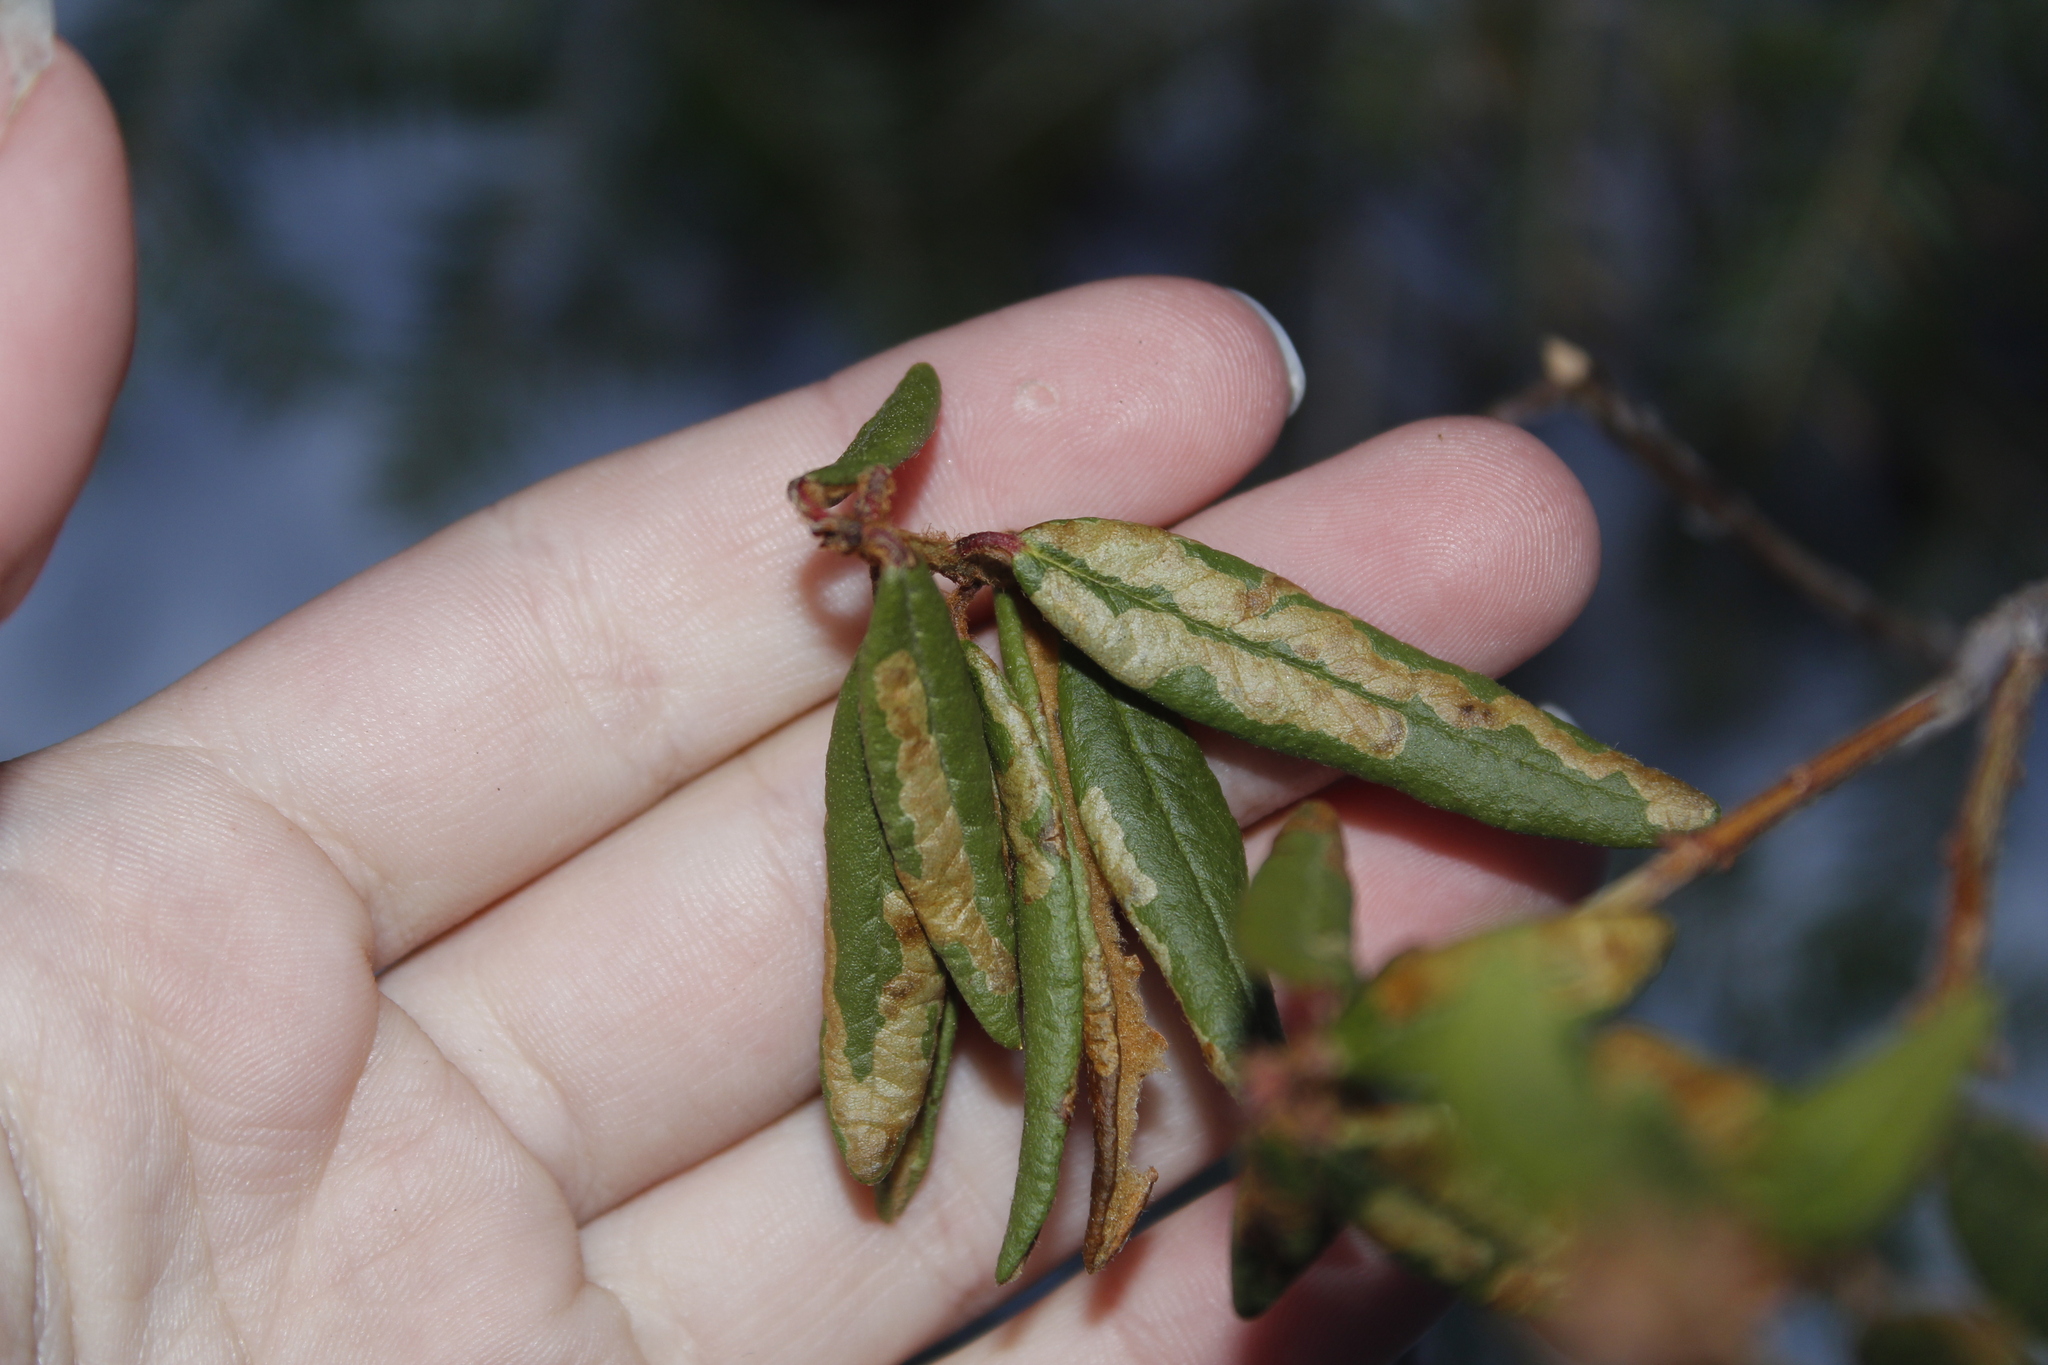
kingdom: Animalia
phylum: Arthropoda
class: Insecta
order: Lepidoptera
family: Gracillariidae
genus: Phyllonorycter
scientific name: Phyllonorycter ledella
